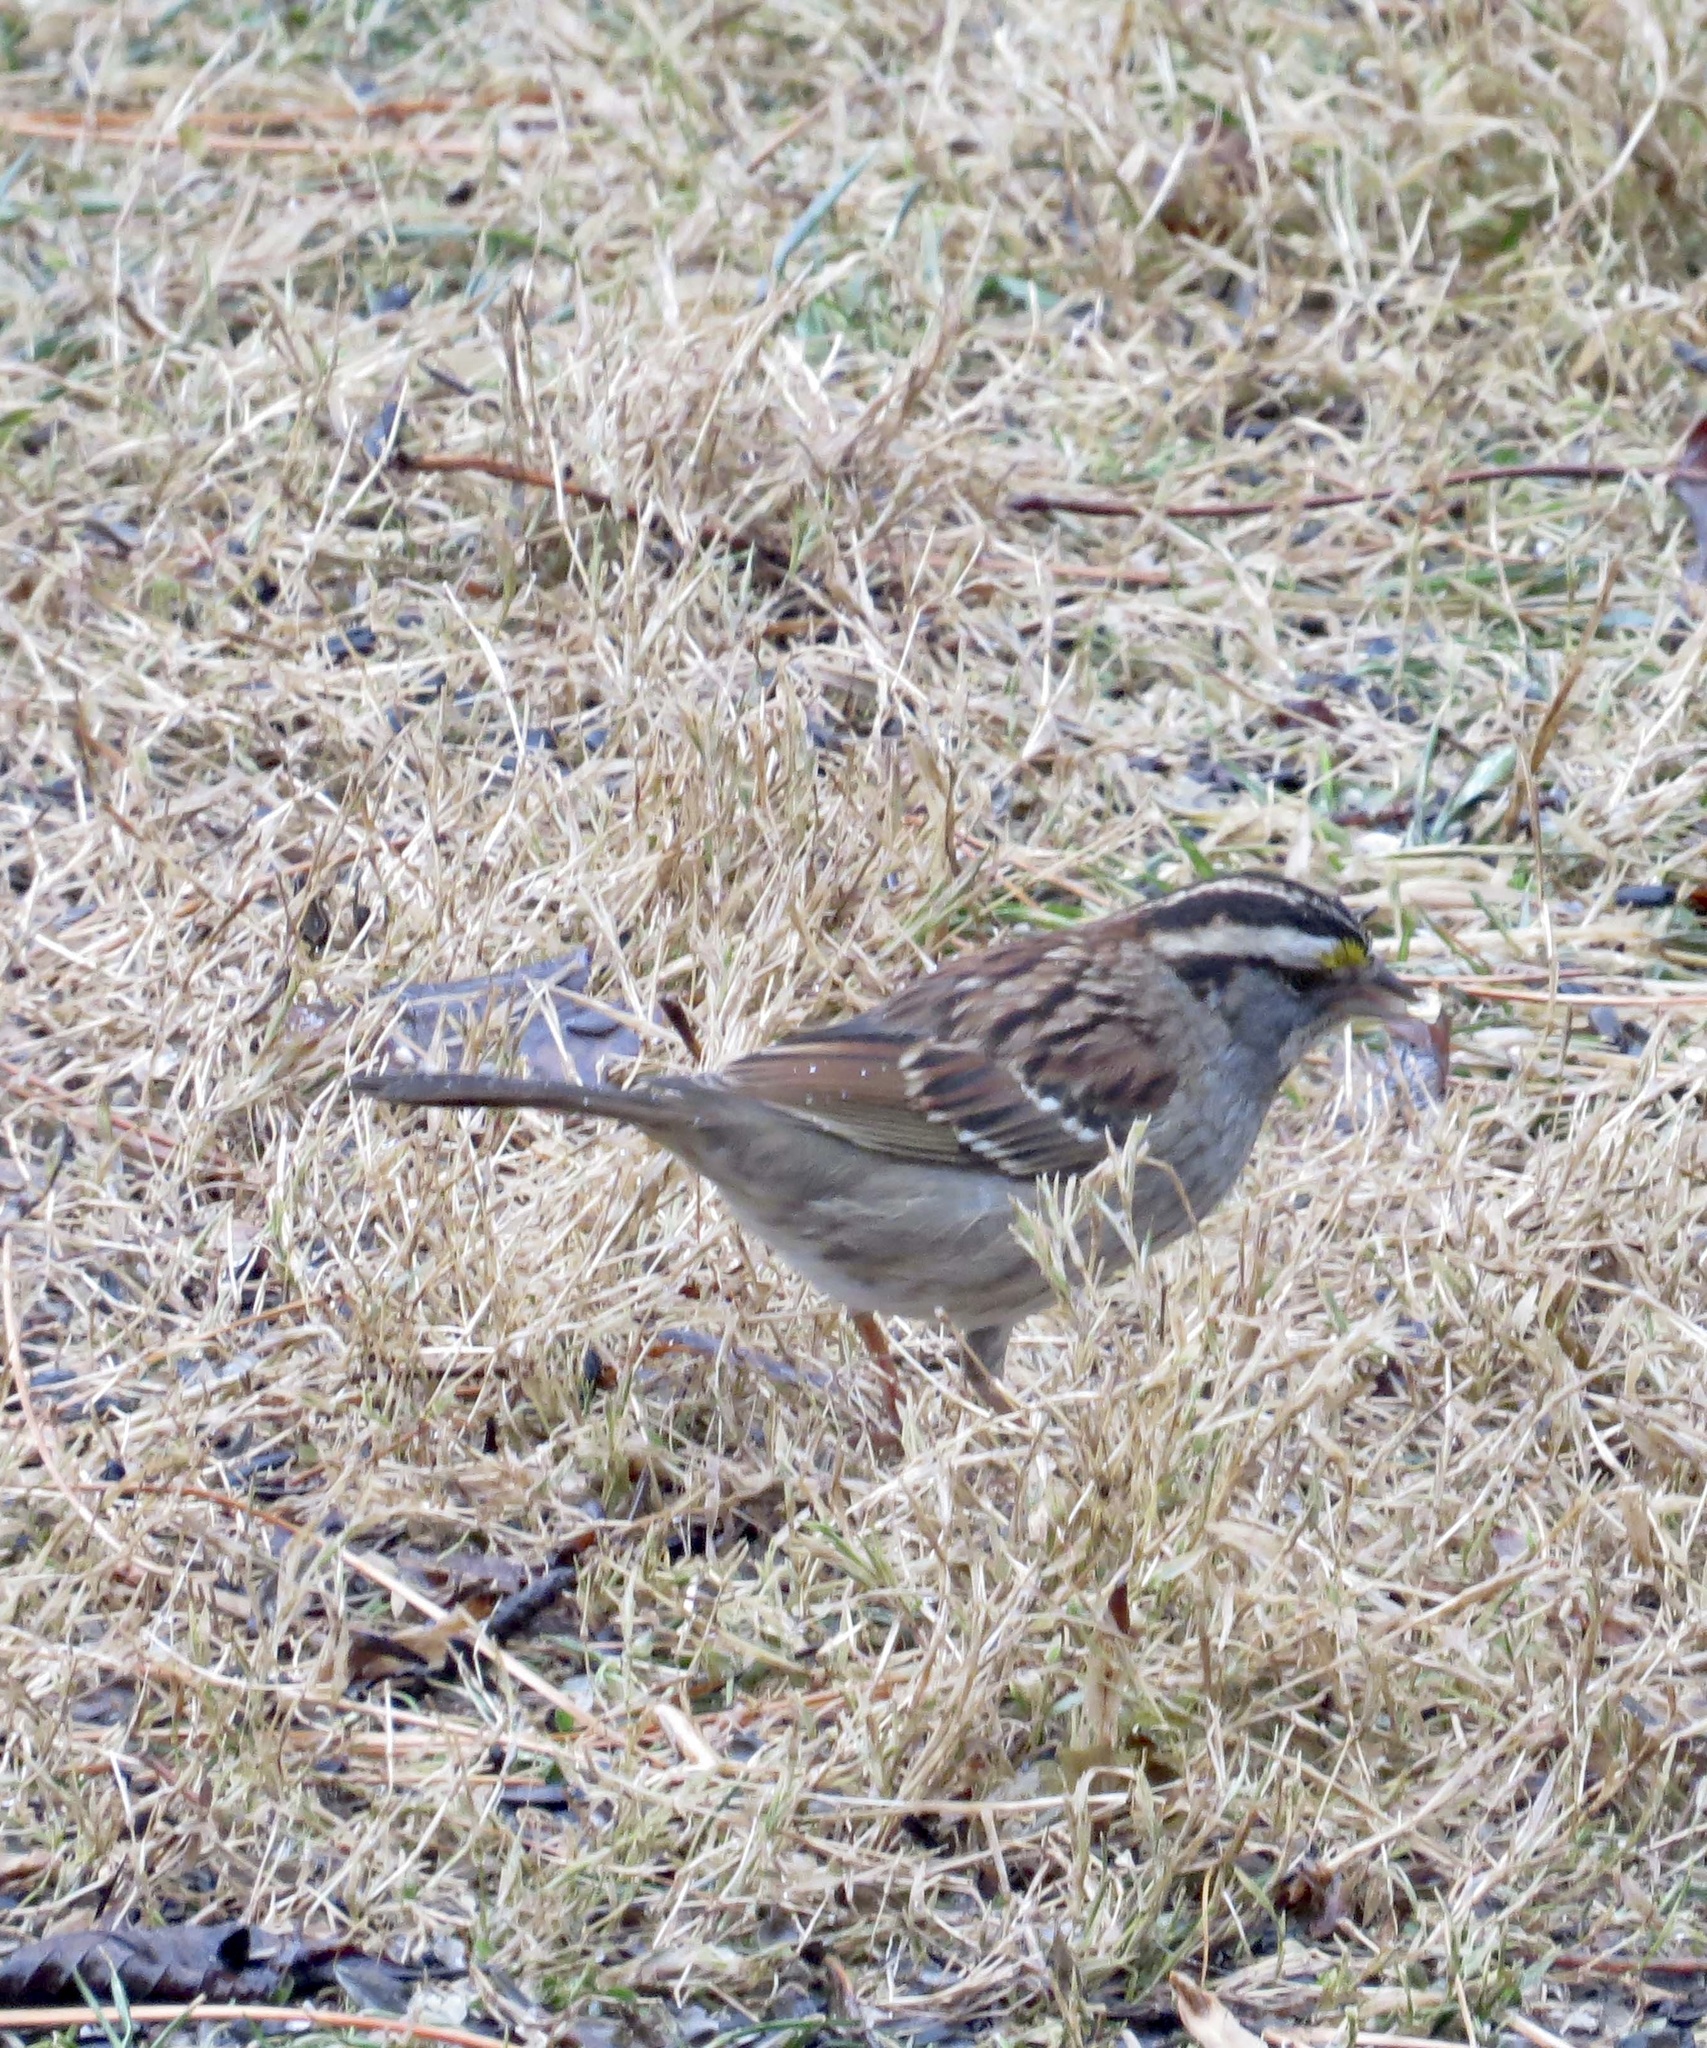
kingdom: Animalia
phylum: Chordata
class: Aves
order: Passeriformes
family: Passerellidae
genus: Zonotrichia
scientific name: Zonotrichia albicollis
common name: White-throated sparrow
